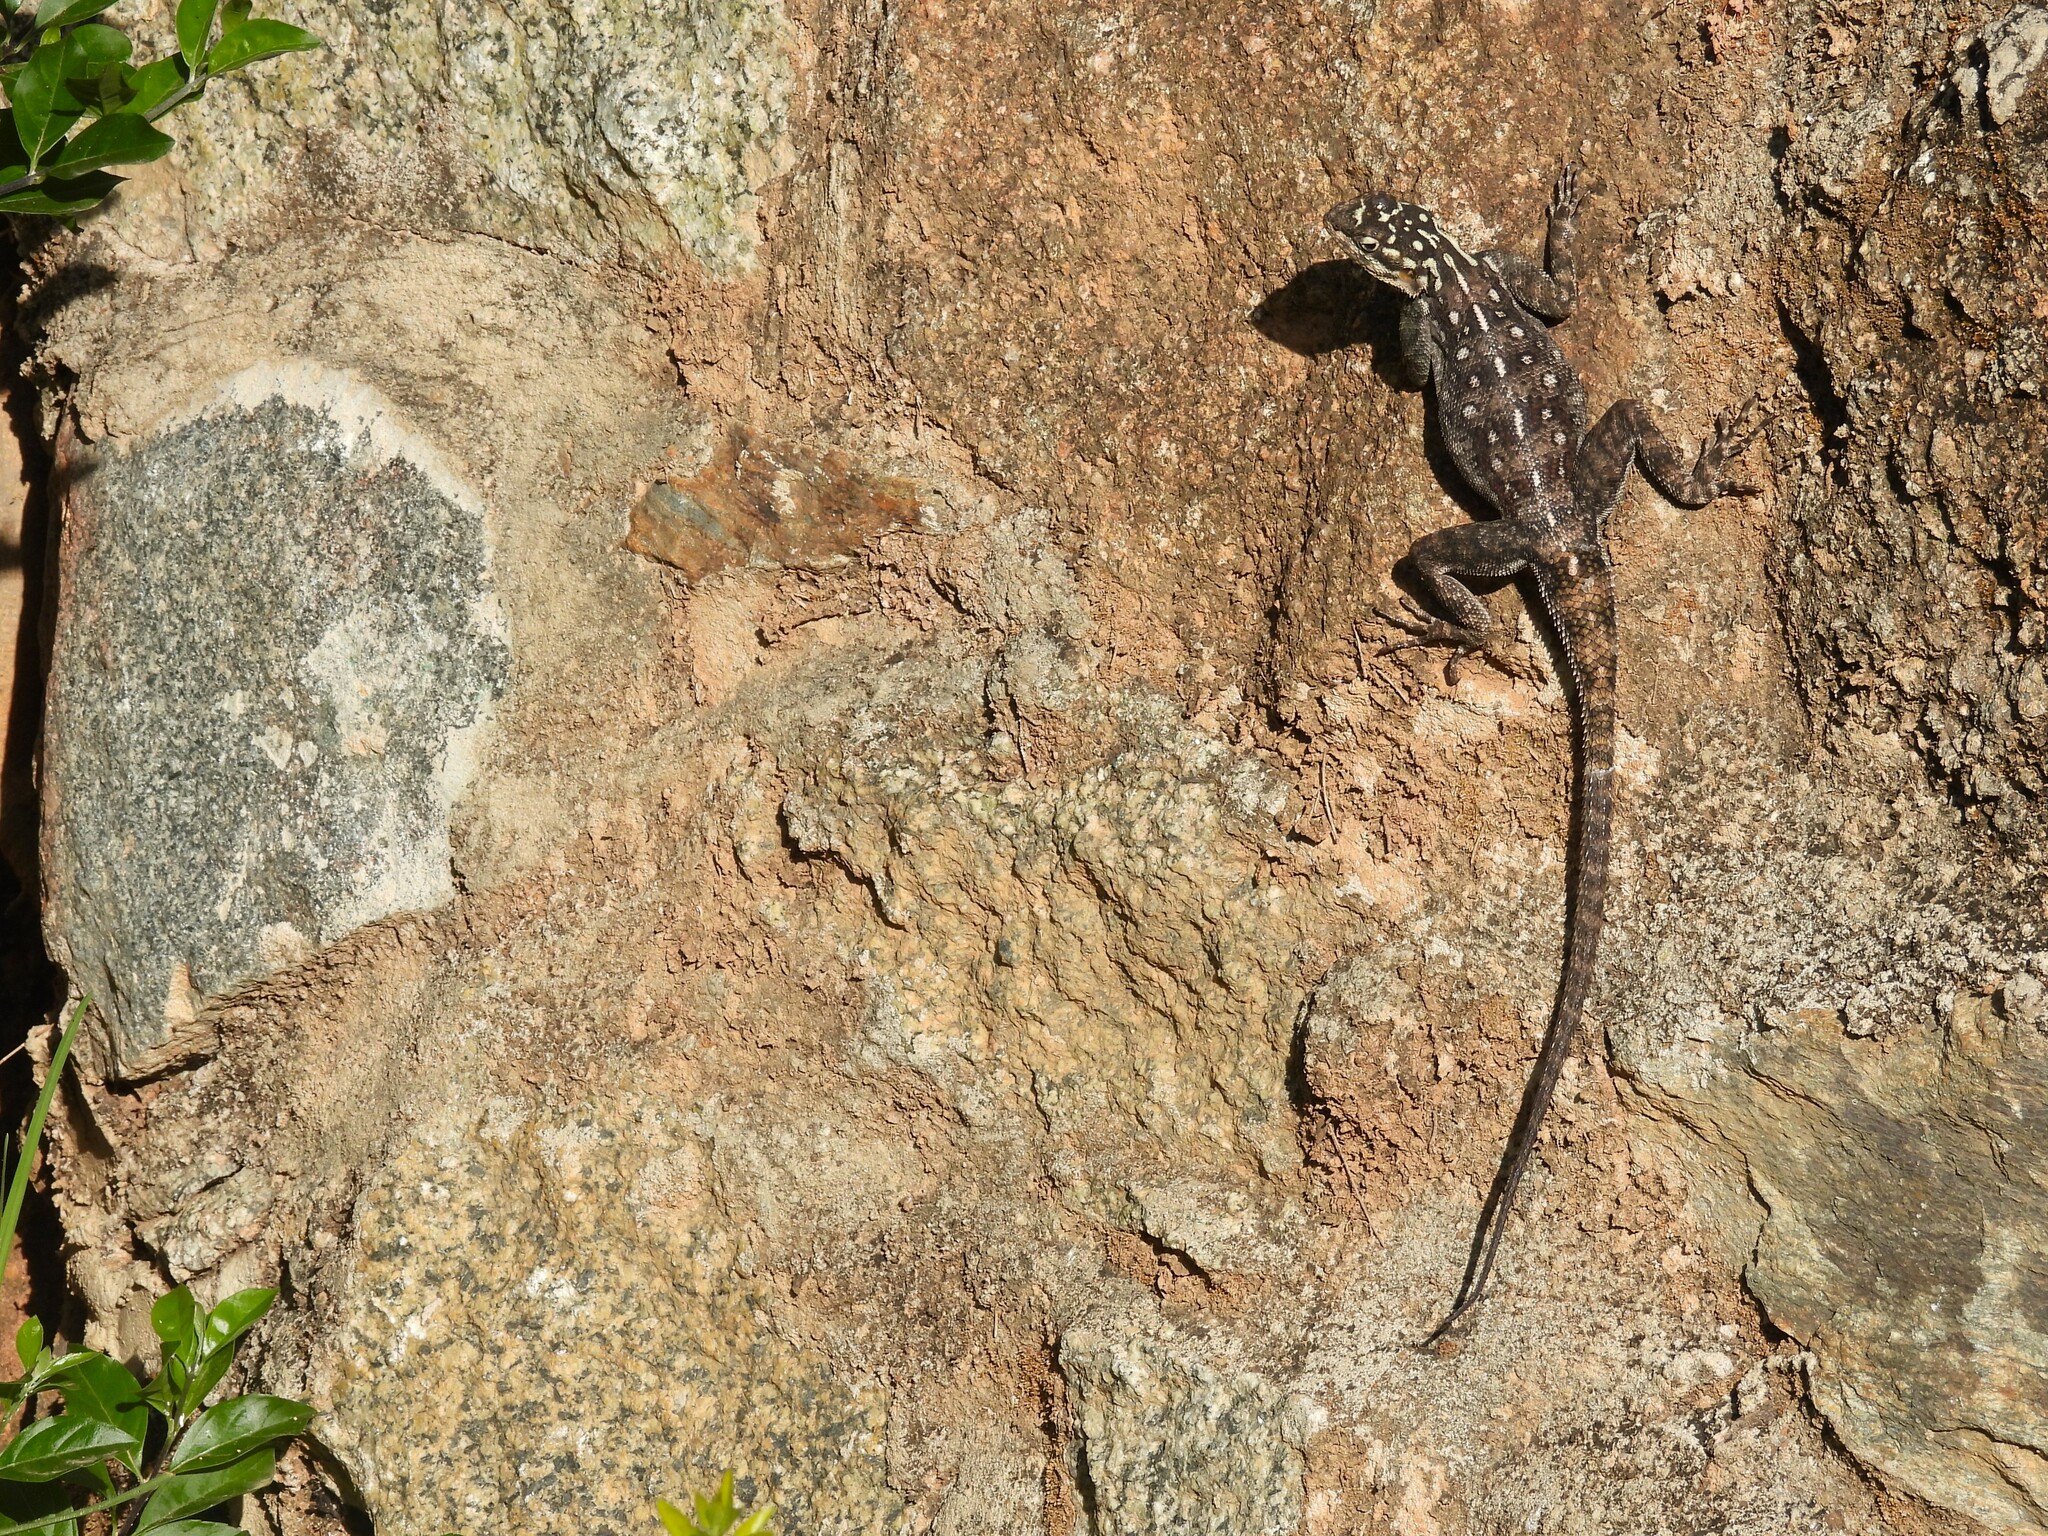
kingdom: Animalia
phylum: Chordata
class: Squamata
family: Agamidae
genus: Agama
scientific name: Agama dodomae
